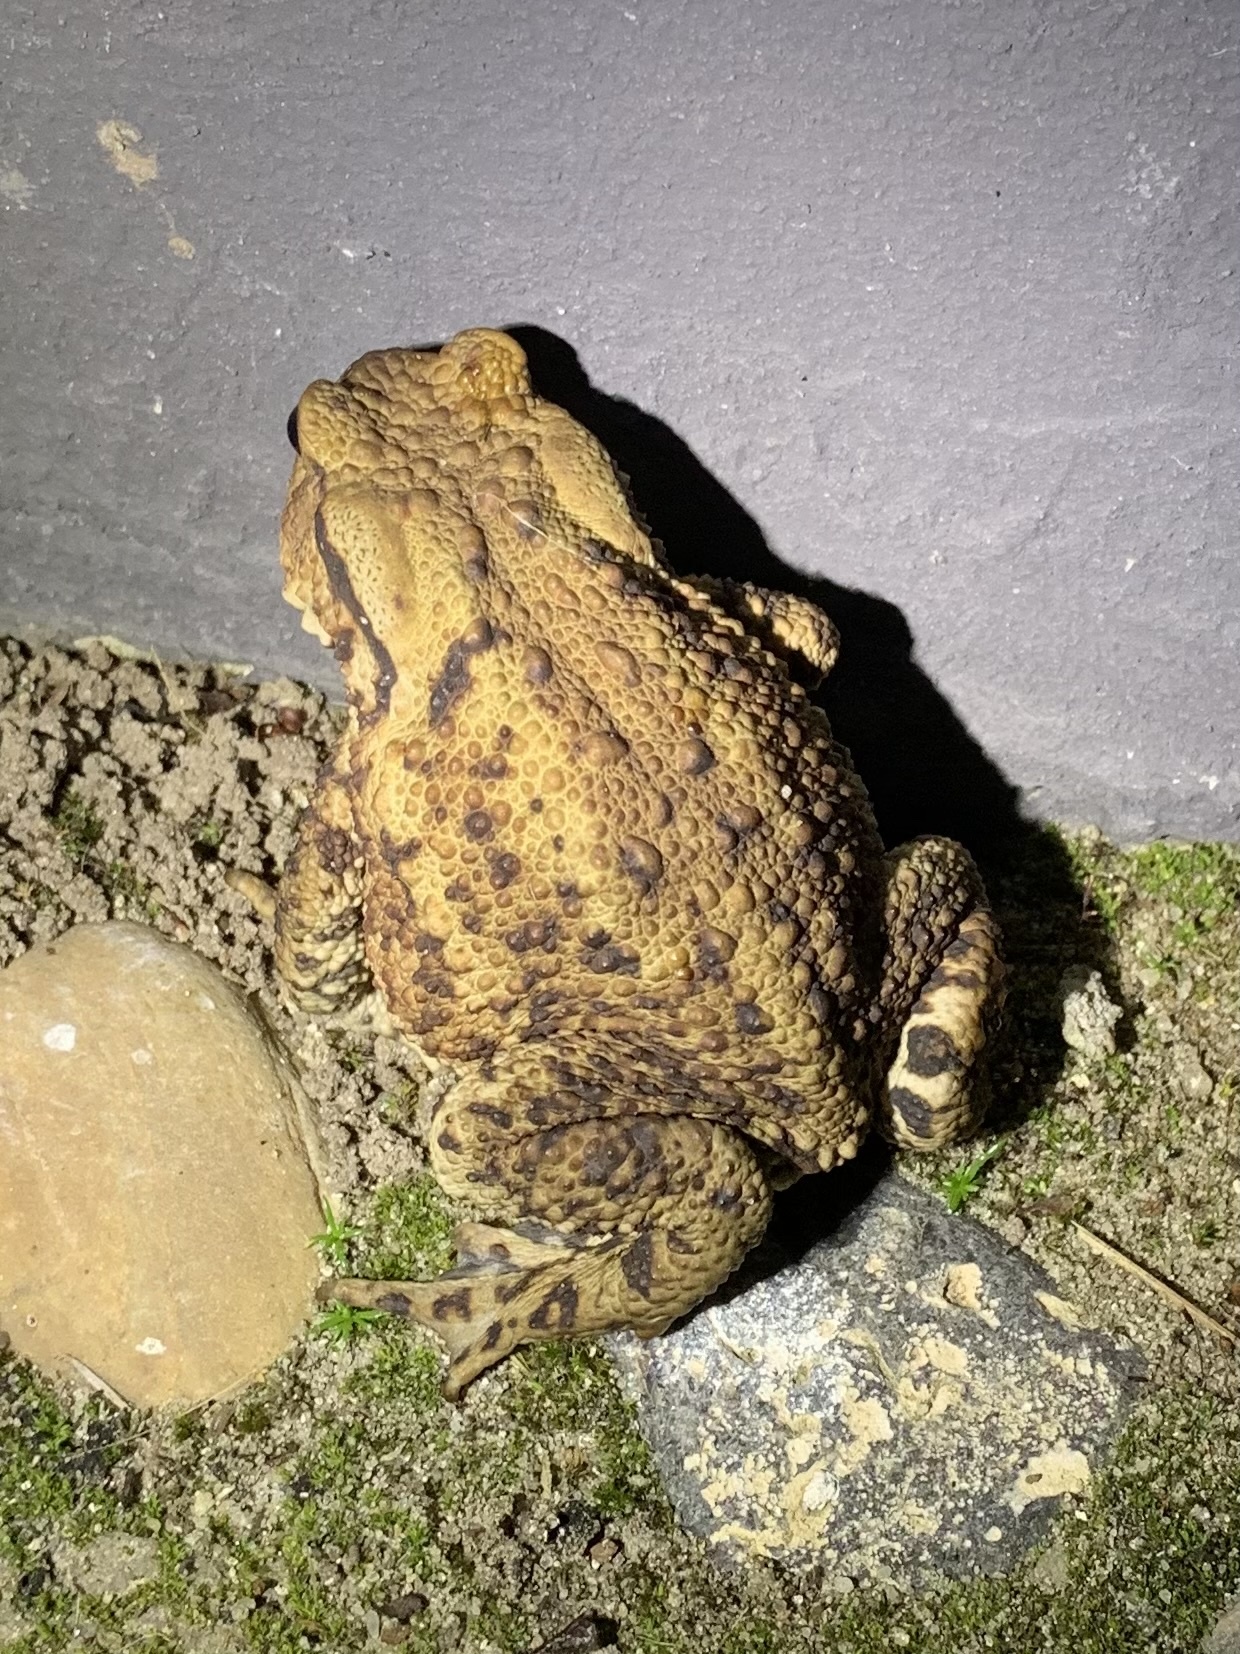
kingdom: Animalia
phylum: Chordata
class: Amphibia
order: Anura
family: Bufonidae
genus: Bufo
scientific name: Bufo bufo
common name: Common toad
